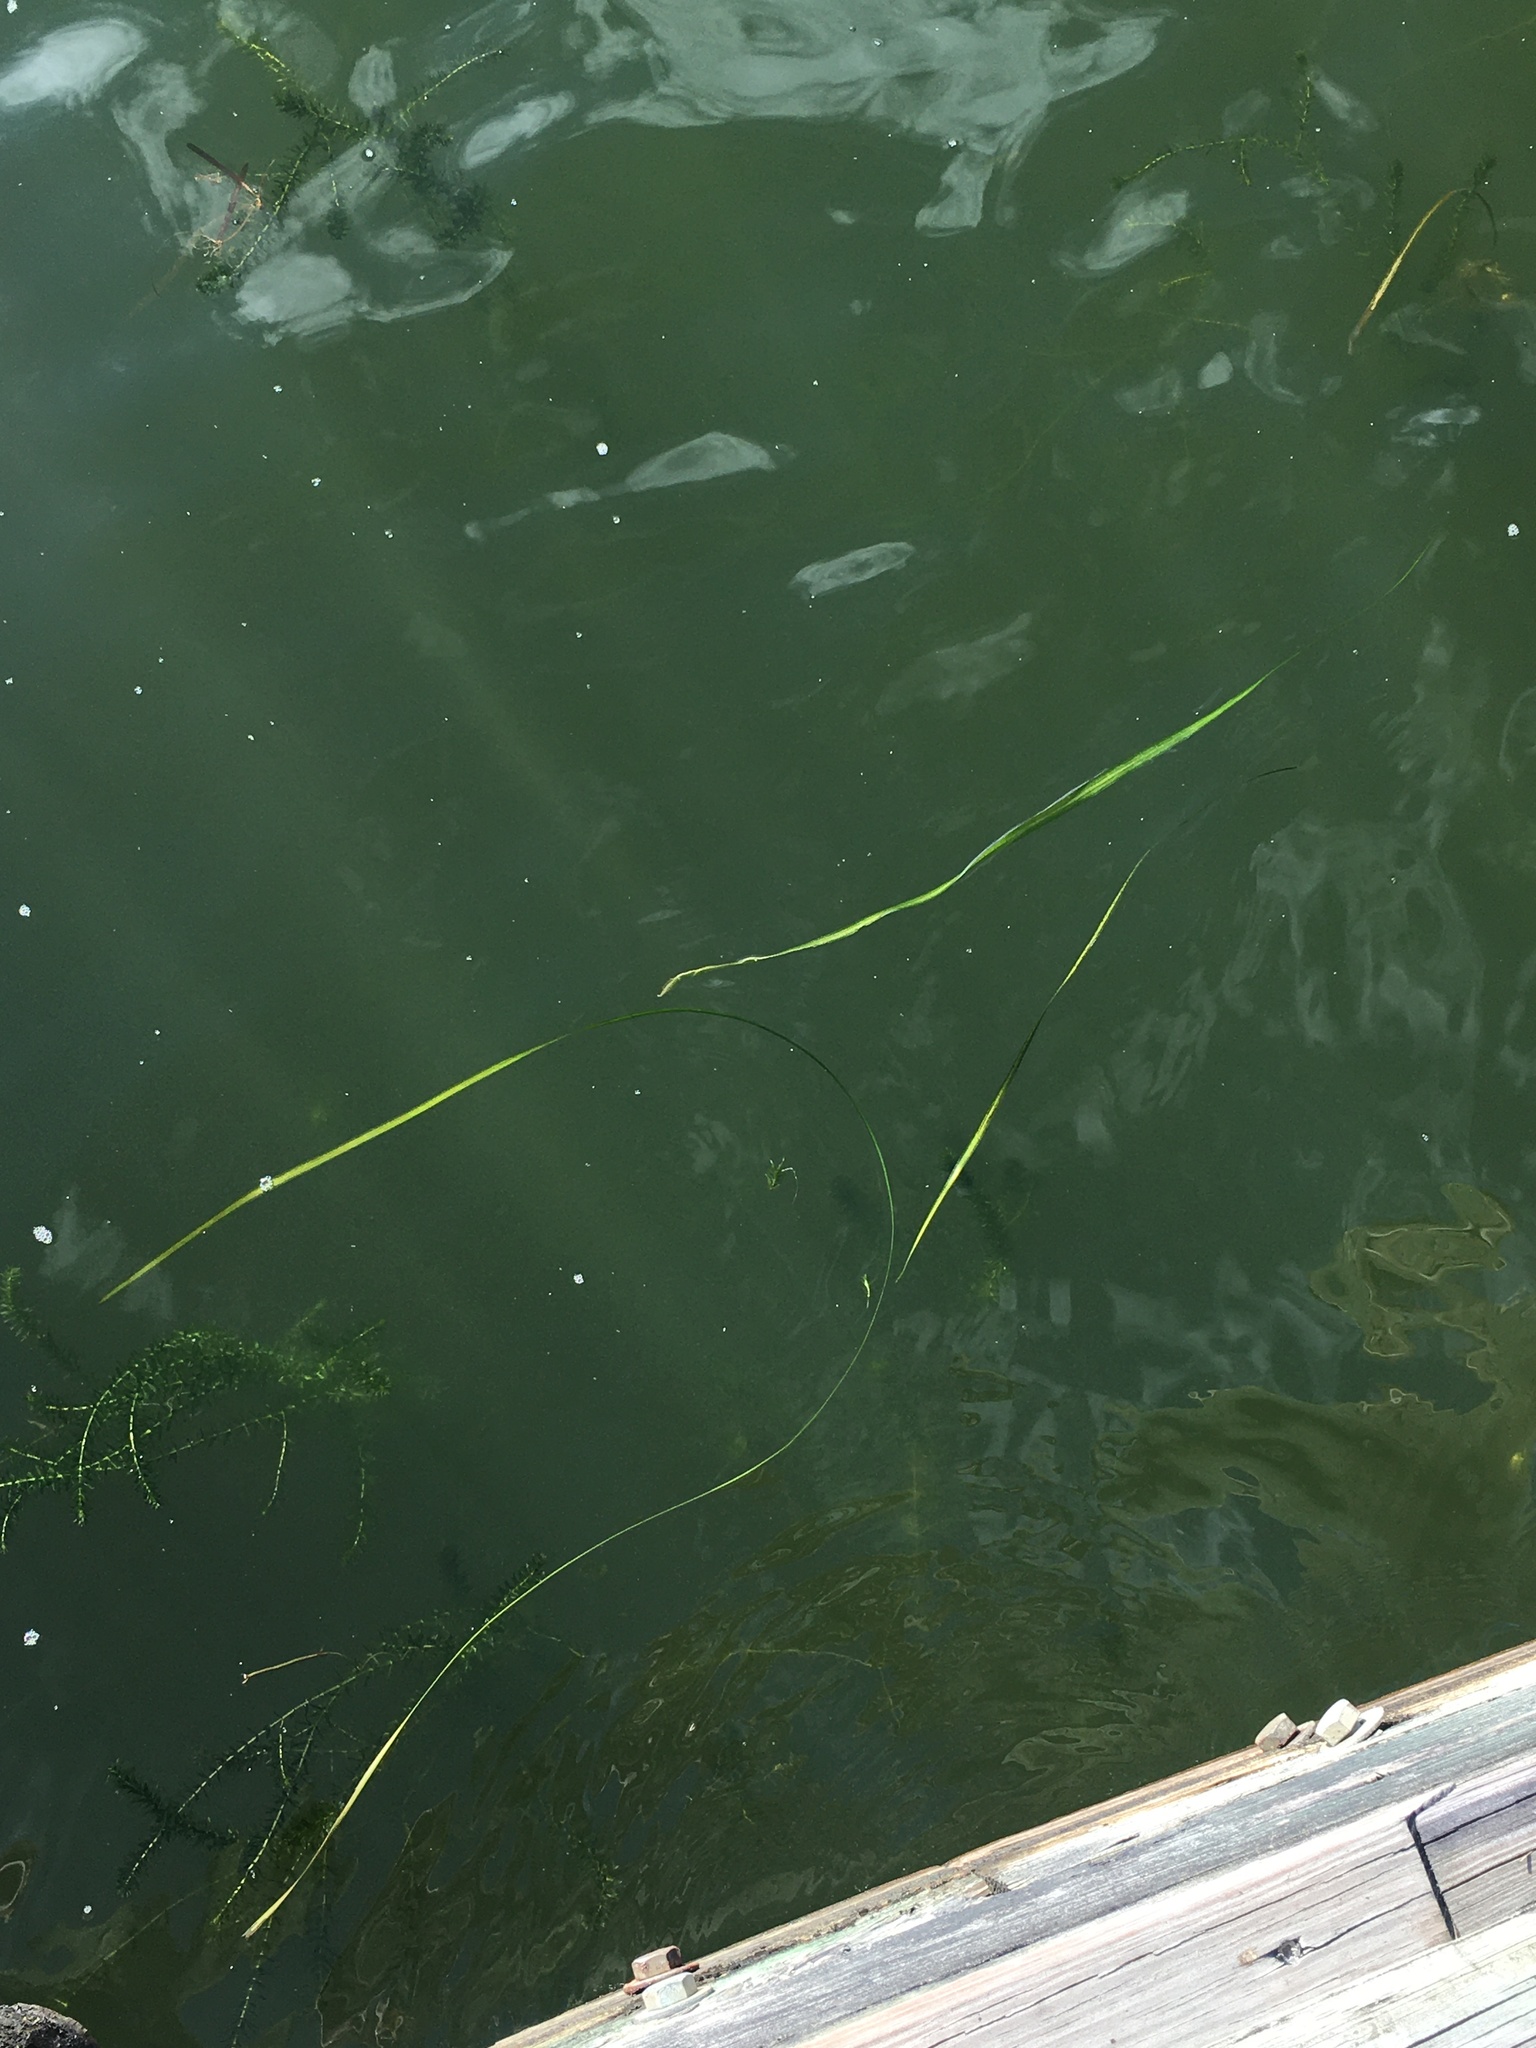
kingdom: Plantae
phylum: Tracheophyta
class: Liliopsida
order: Alismatales
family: Hydrocharitaceae
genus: Vallisneria
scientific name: Vallisneria americana
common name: American eelgrass
